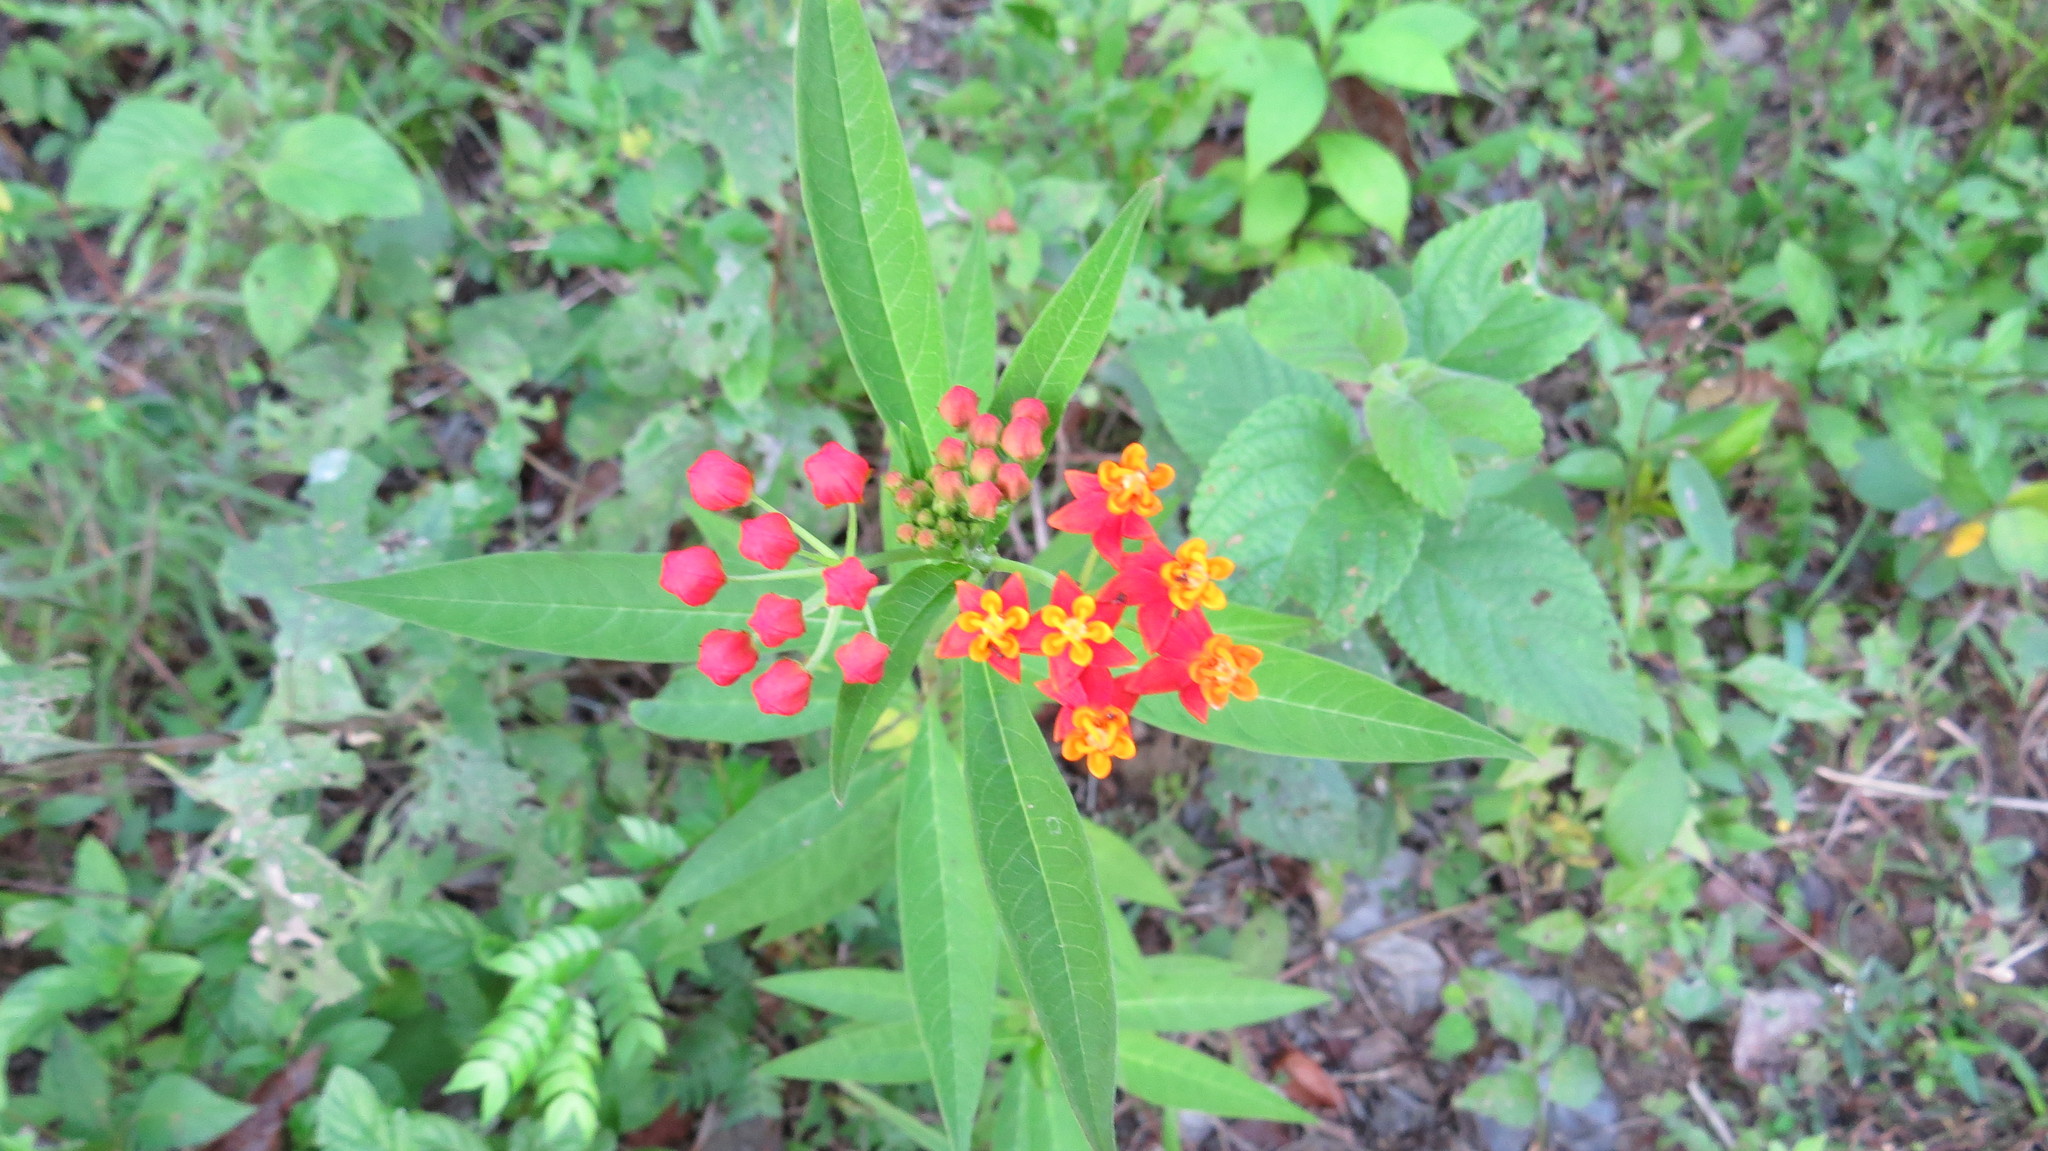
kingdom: Plantae
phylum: Tracheophyta
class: Magnoliopsida
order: Gentianales
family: Apocynaceae
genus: Asclepias
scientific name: Asclepias curassavica
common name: Bloodflower
